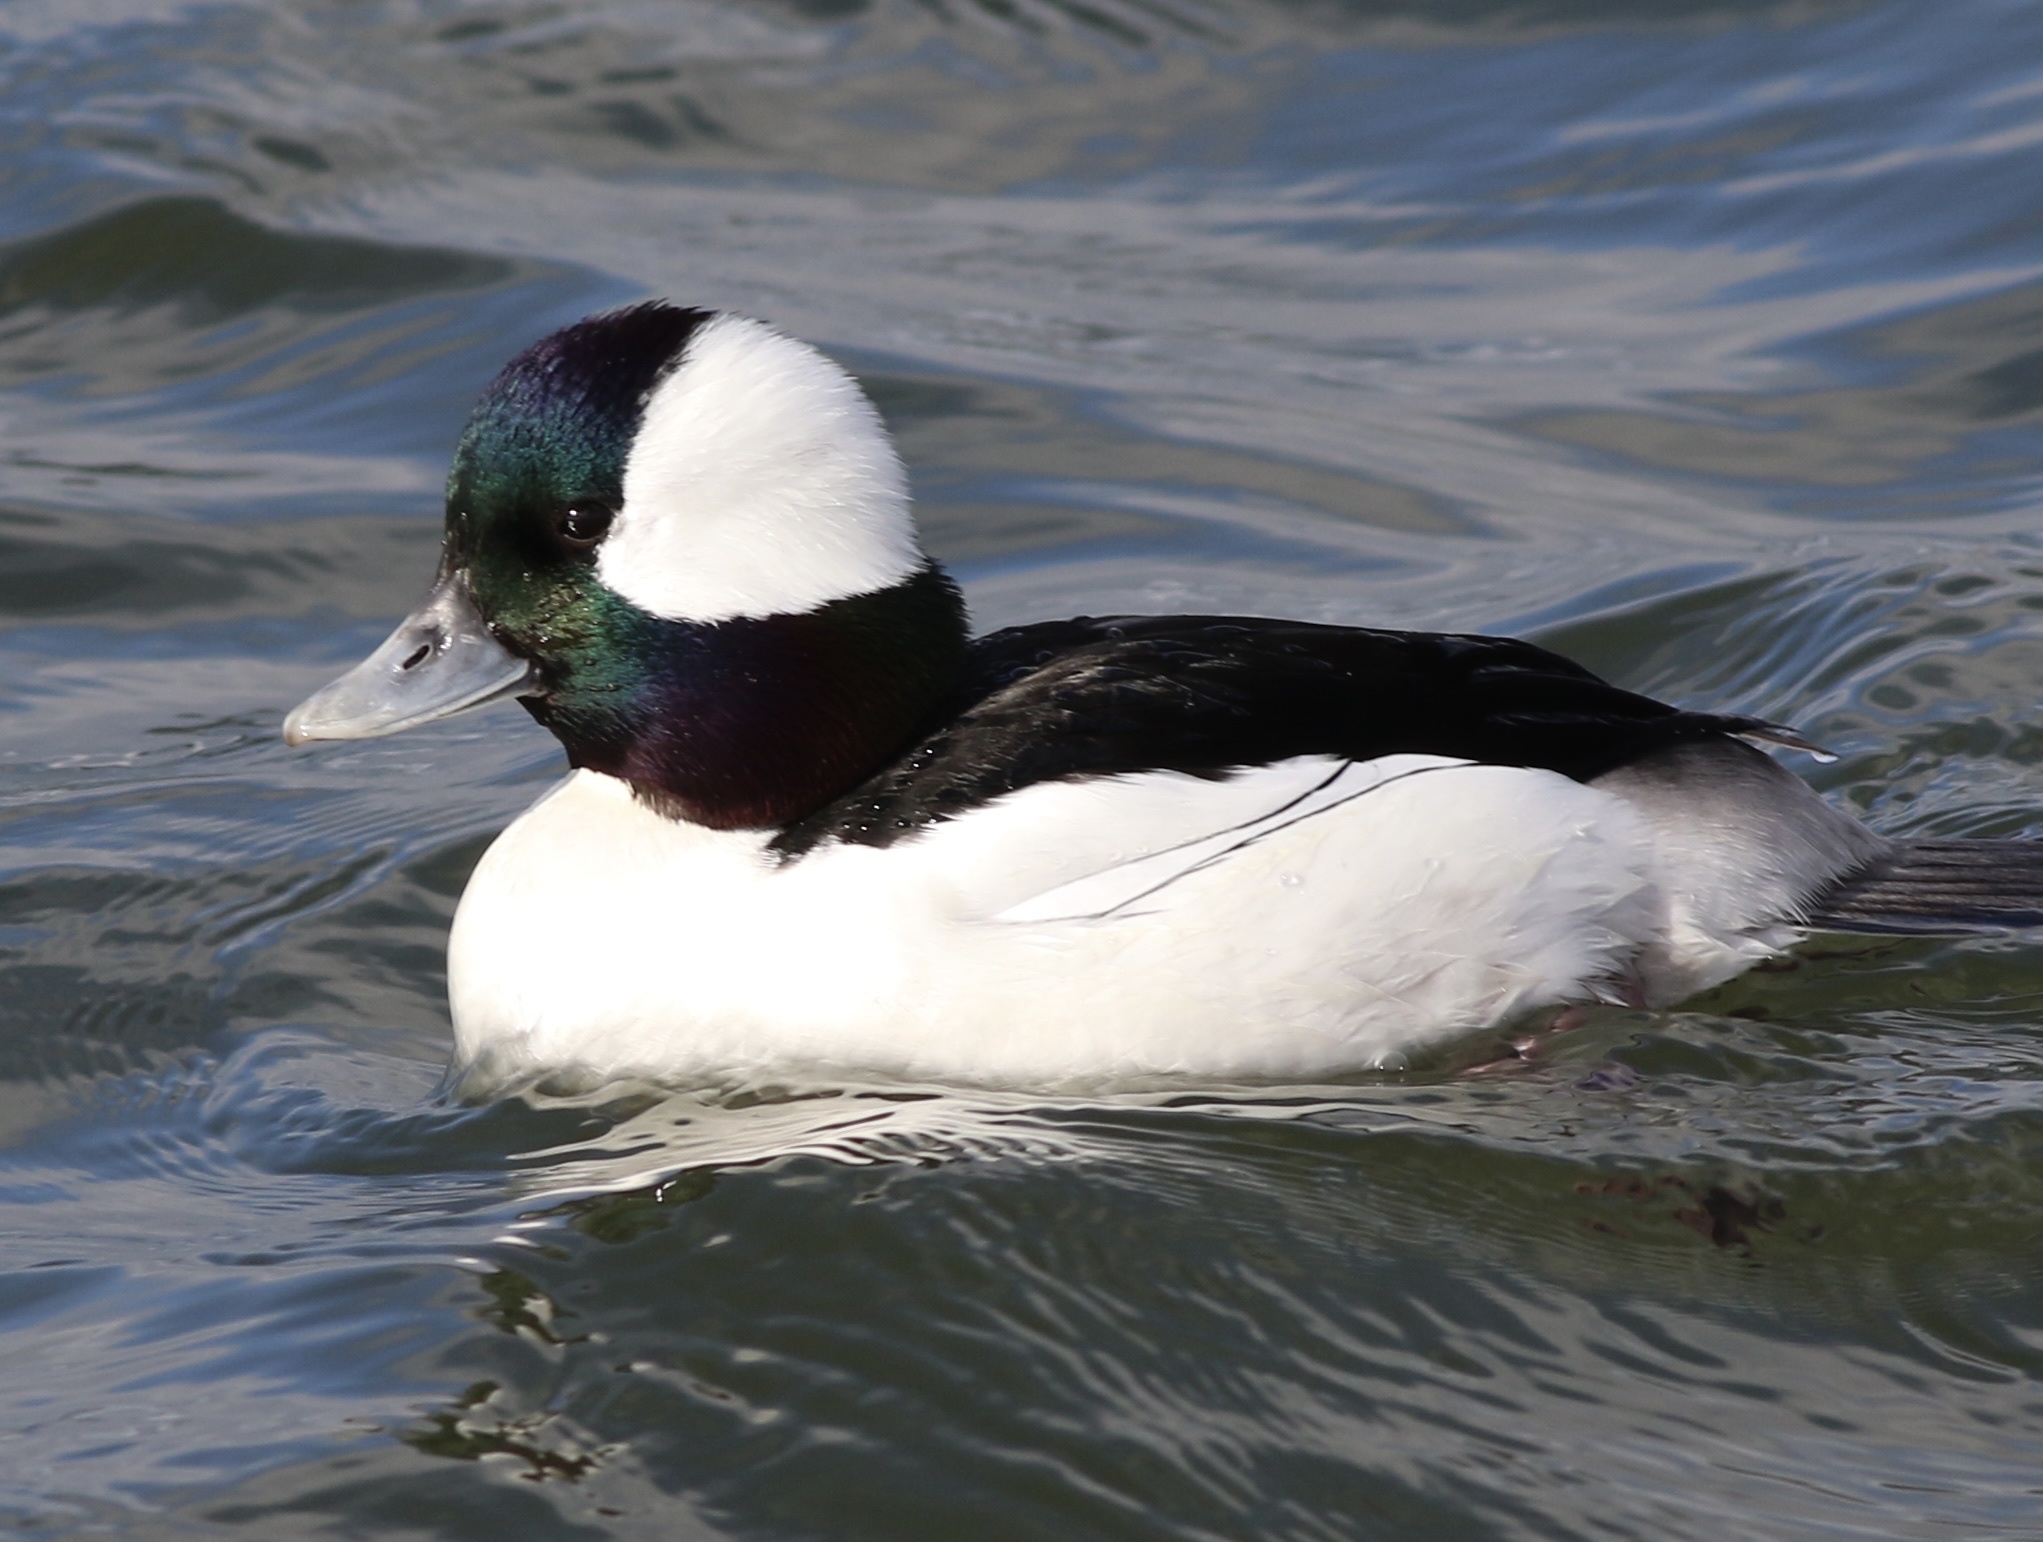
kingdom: Animalia
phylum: Chordata
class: Aves
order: Anseriformes
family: Anatidae
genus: Bucephala
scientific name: Bucephala albeola
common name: Bufflehead
